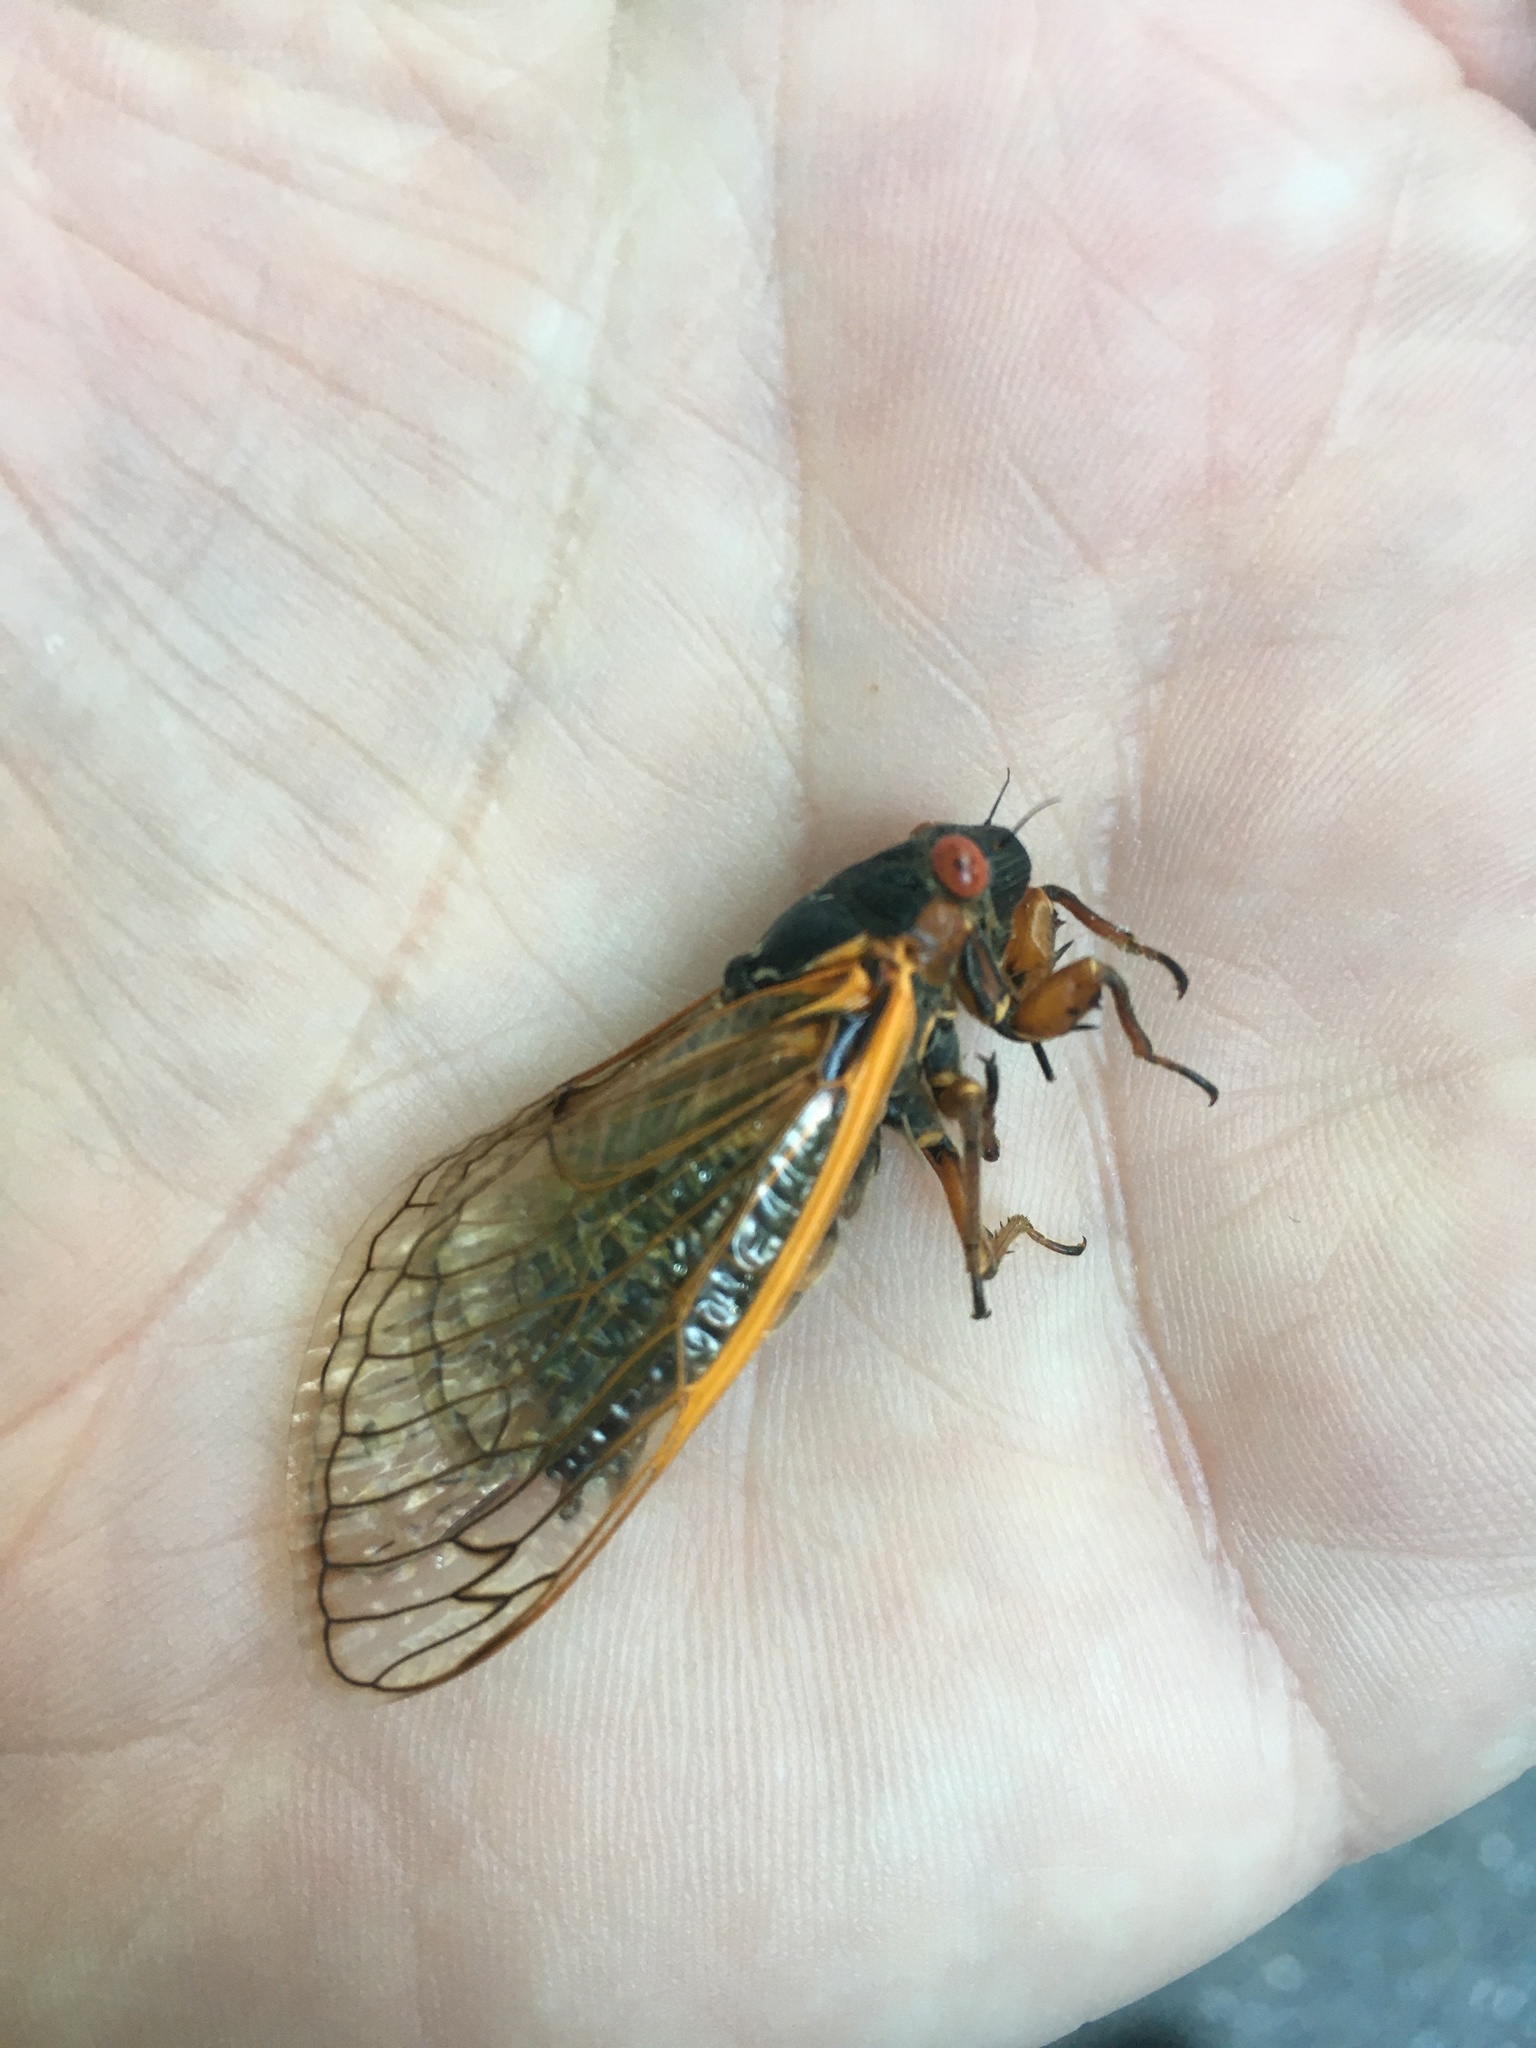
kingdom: Animalia
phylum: Arthropoda
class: Insecta
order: Hemiptera
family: Cicadidae
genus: Magicicada
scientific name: Magicicada septendecim
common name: Periodical cicada
